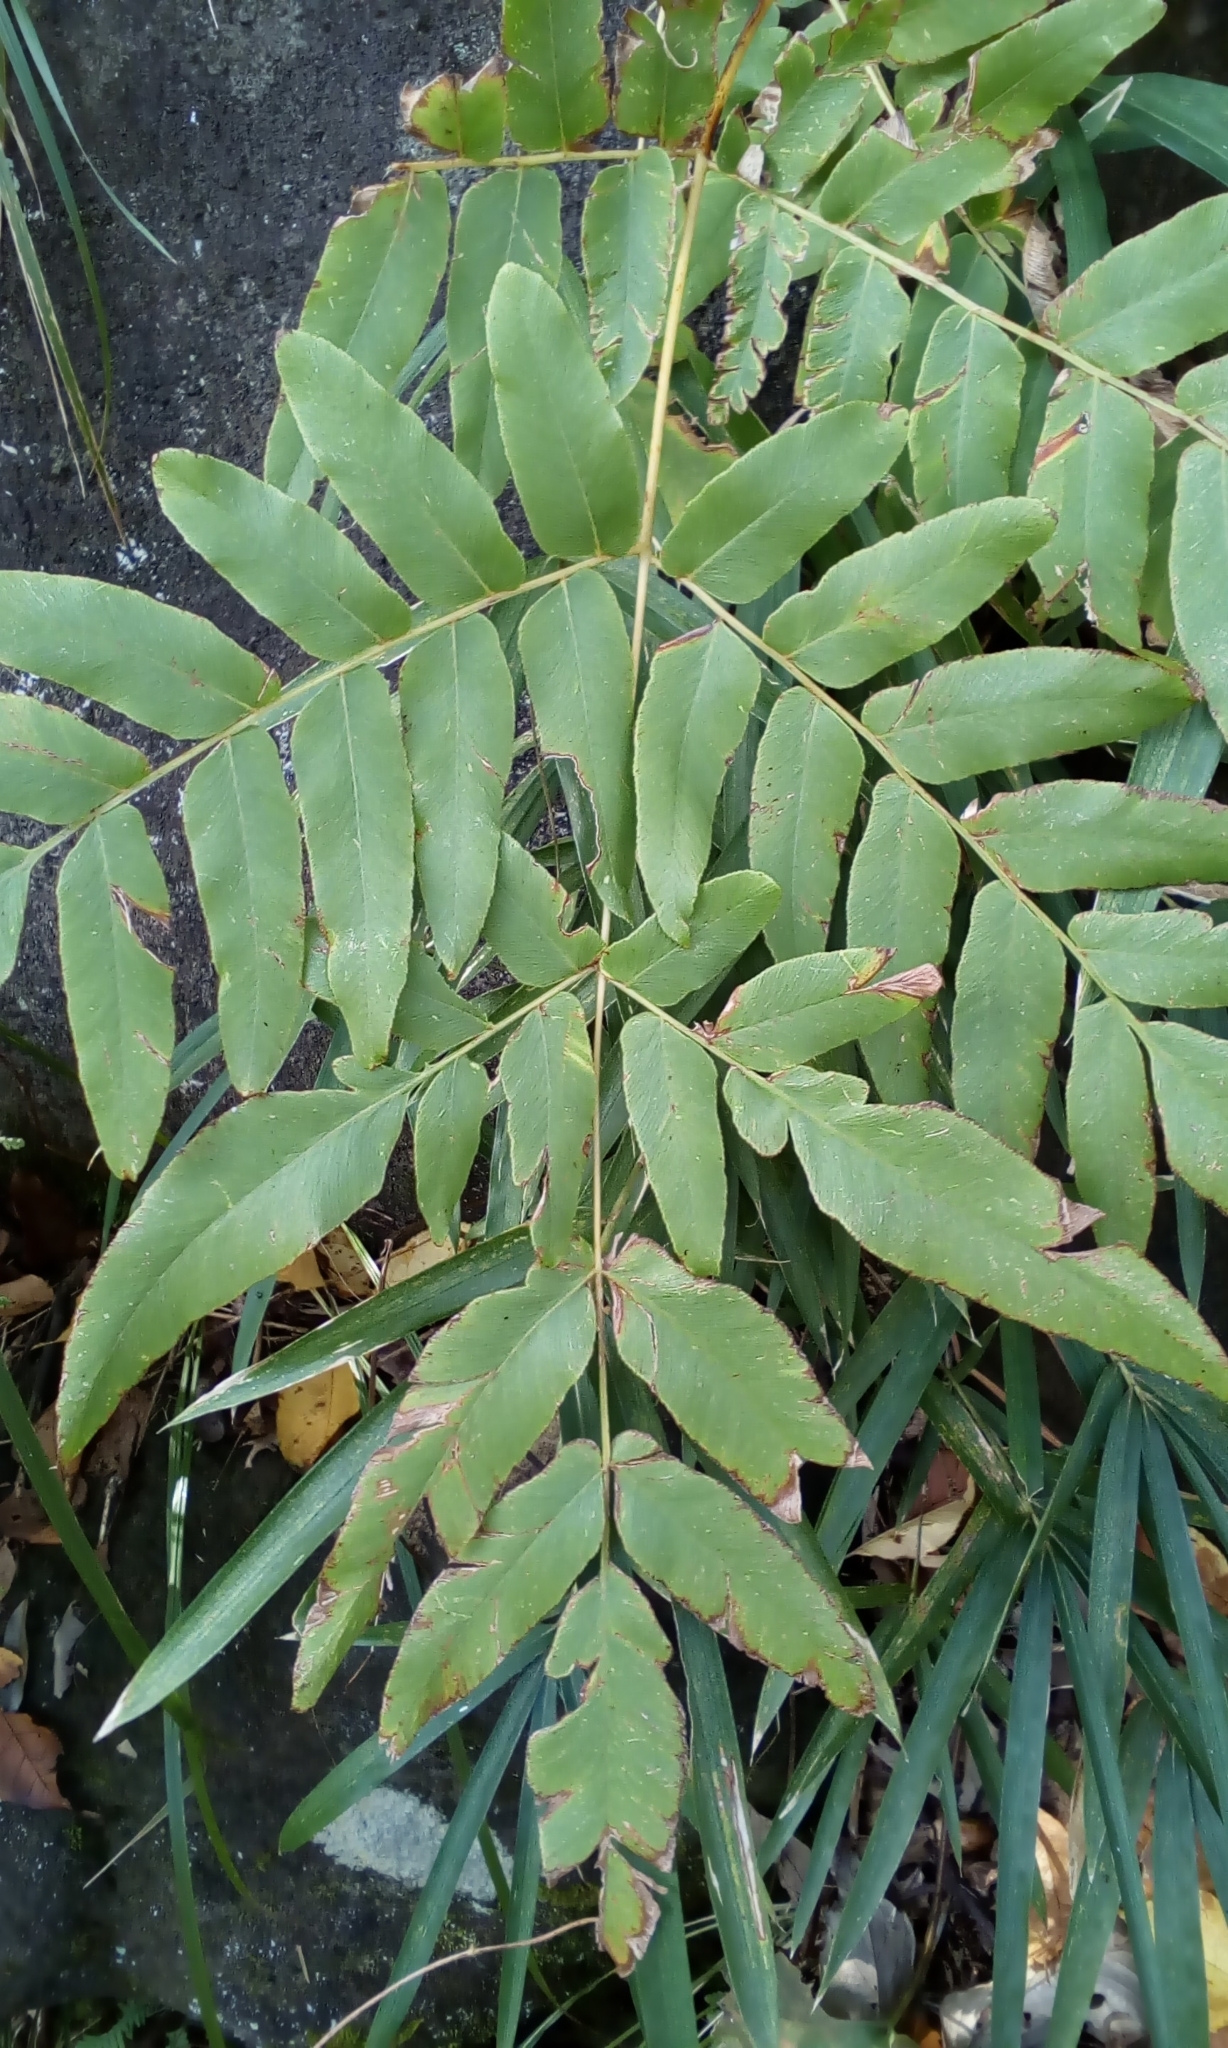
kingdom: Plantae
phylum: Tracheophyta
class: Polypodiopsida
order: Osmundales
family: Osmundaceae
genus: Osmunda
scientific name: Osmunda japonica
